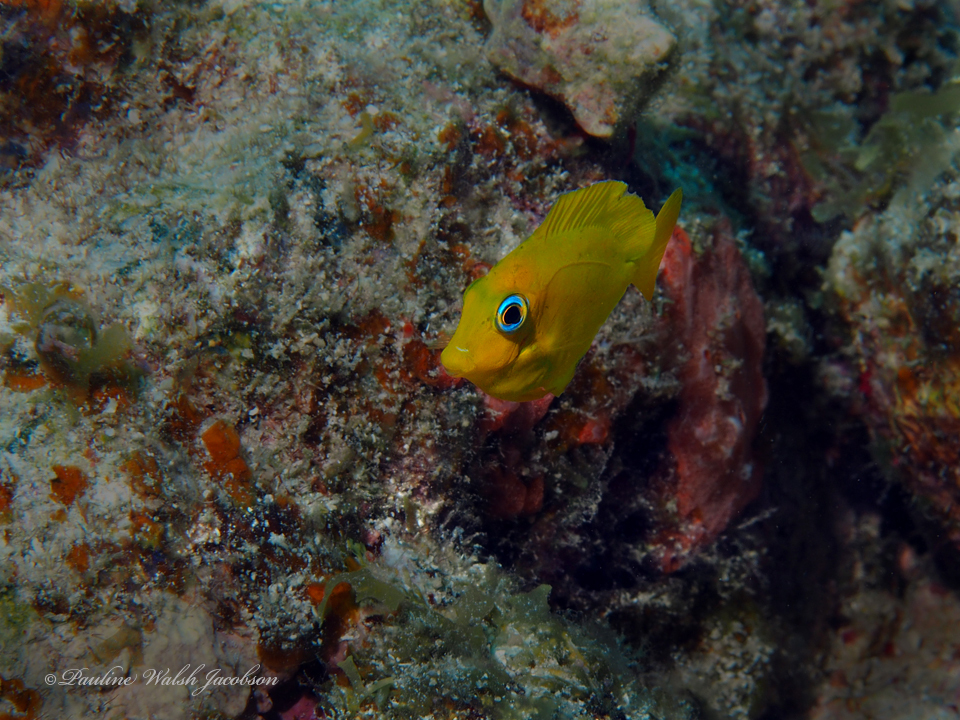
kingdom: Animalia
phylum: Chordata
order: Perciformes
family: Acanthuridae
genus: Acanthurus
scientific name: Acanthurus coeruleus
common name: Blue tang
